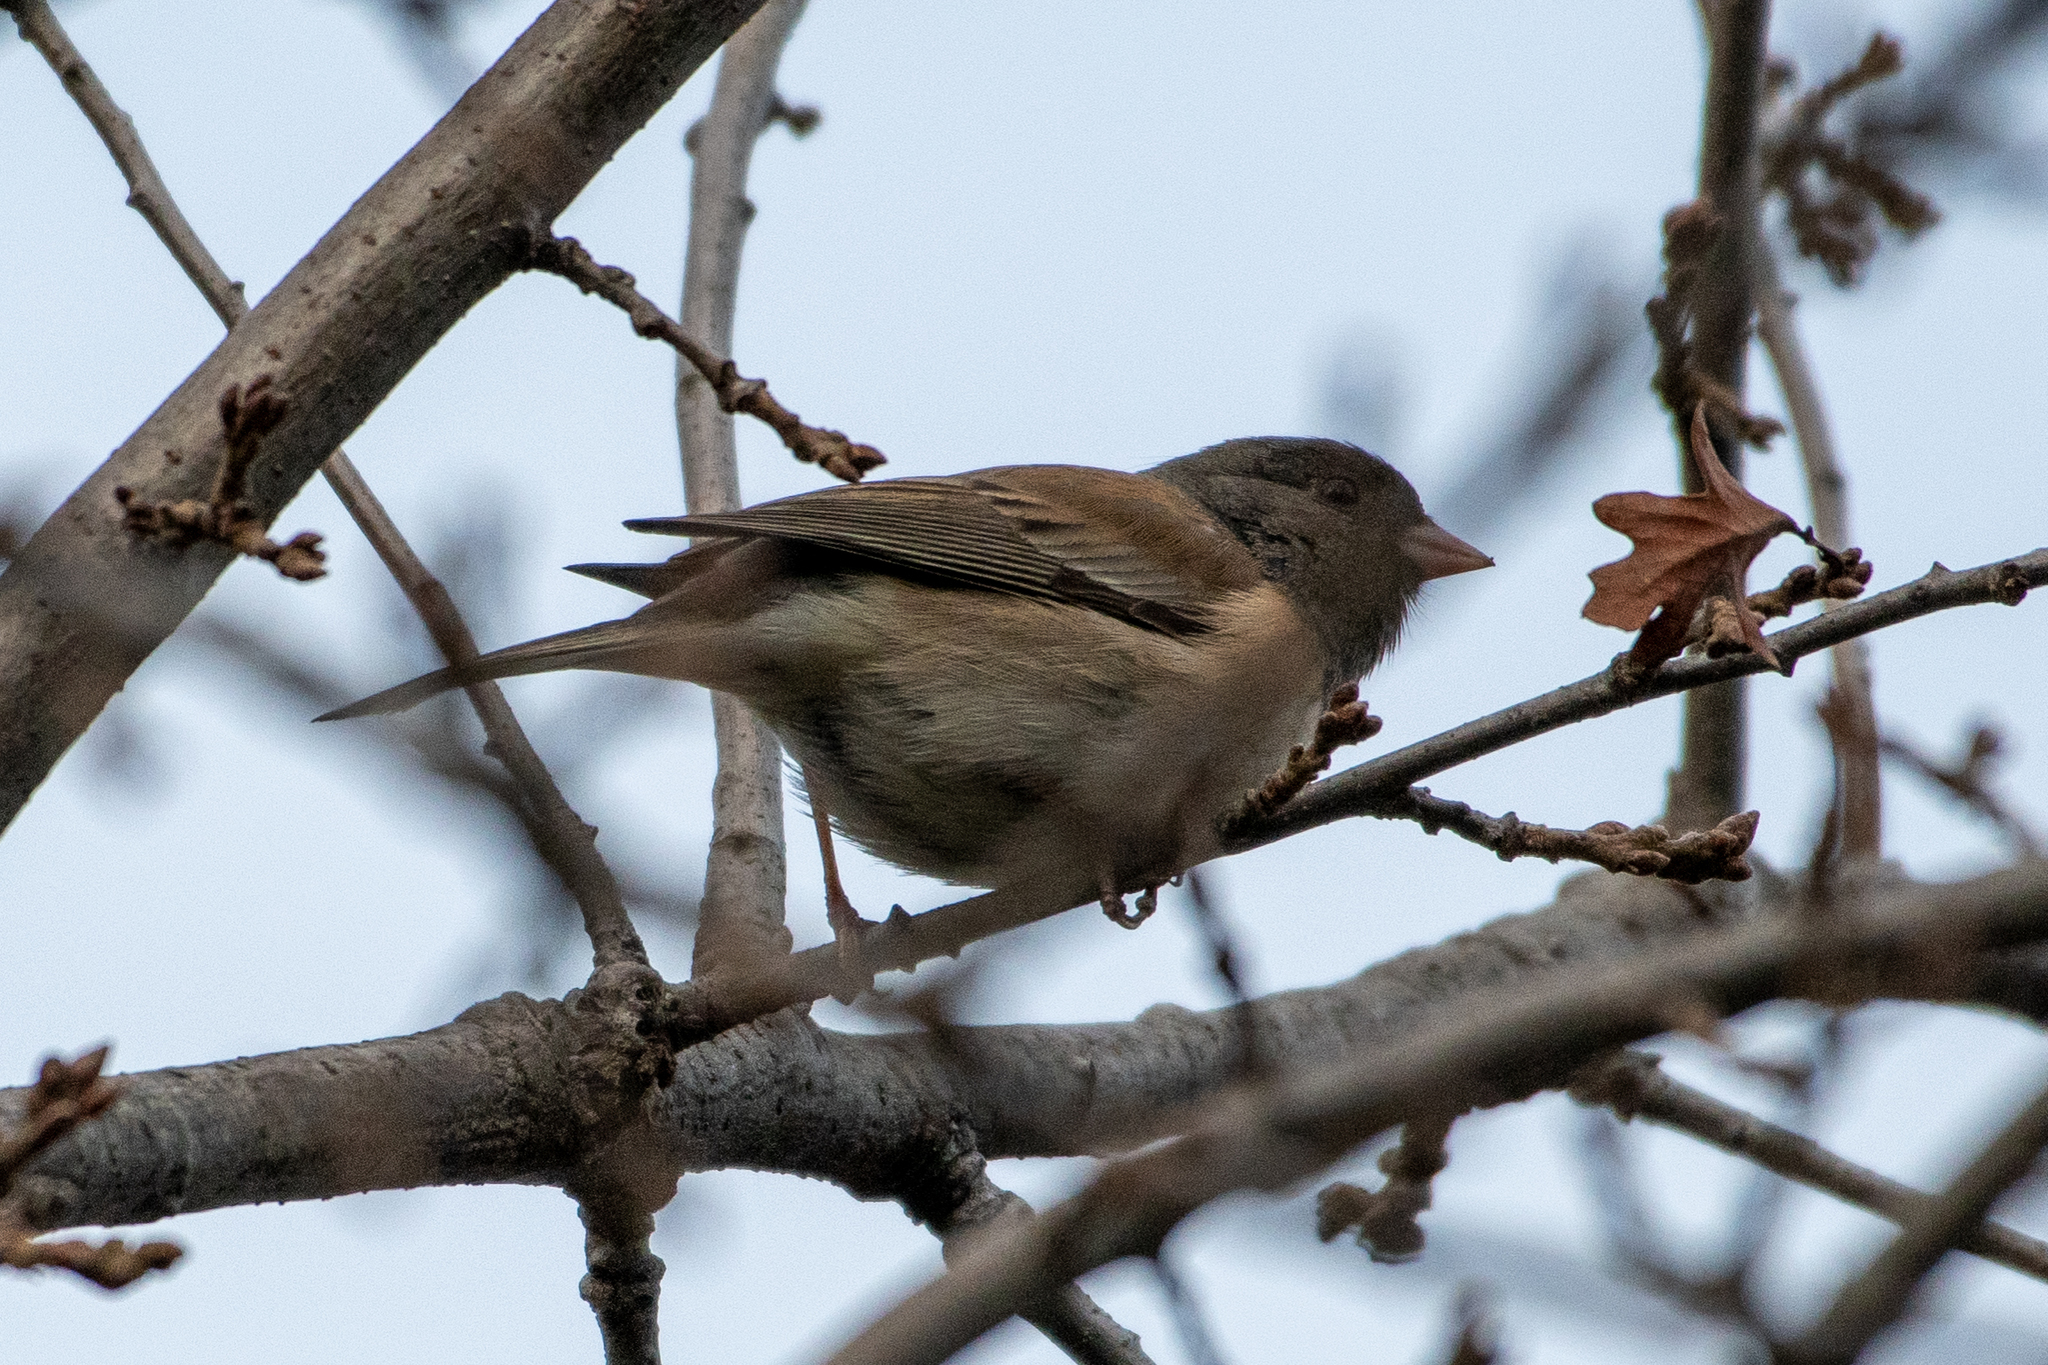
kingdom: Animalia
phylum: Chordata
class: Aves
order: Passeriformes
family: Passerellidae
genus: Junco
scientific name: Junco hyemalis
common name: Dark-eyed junco
